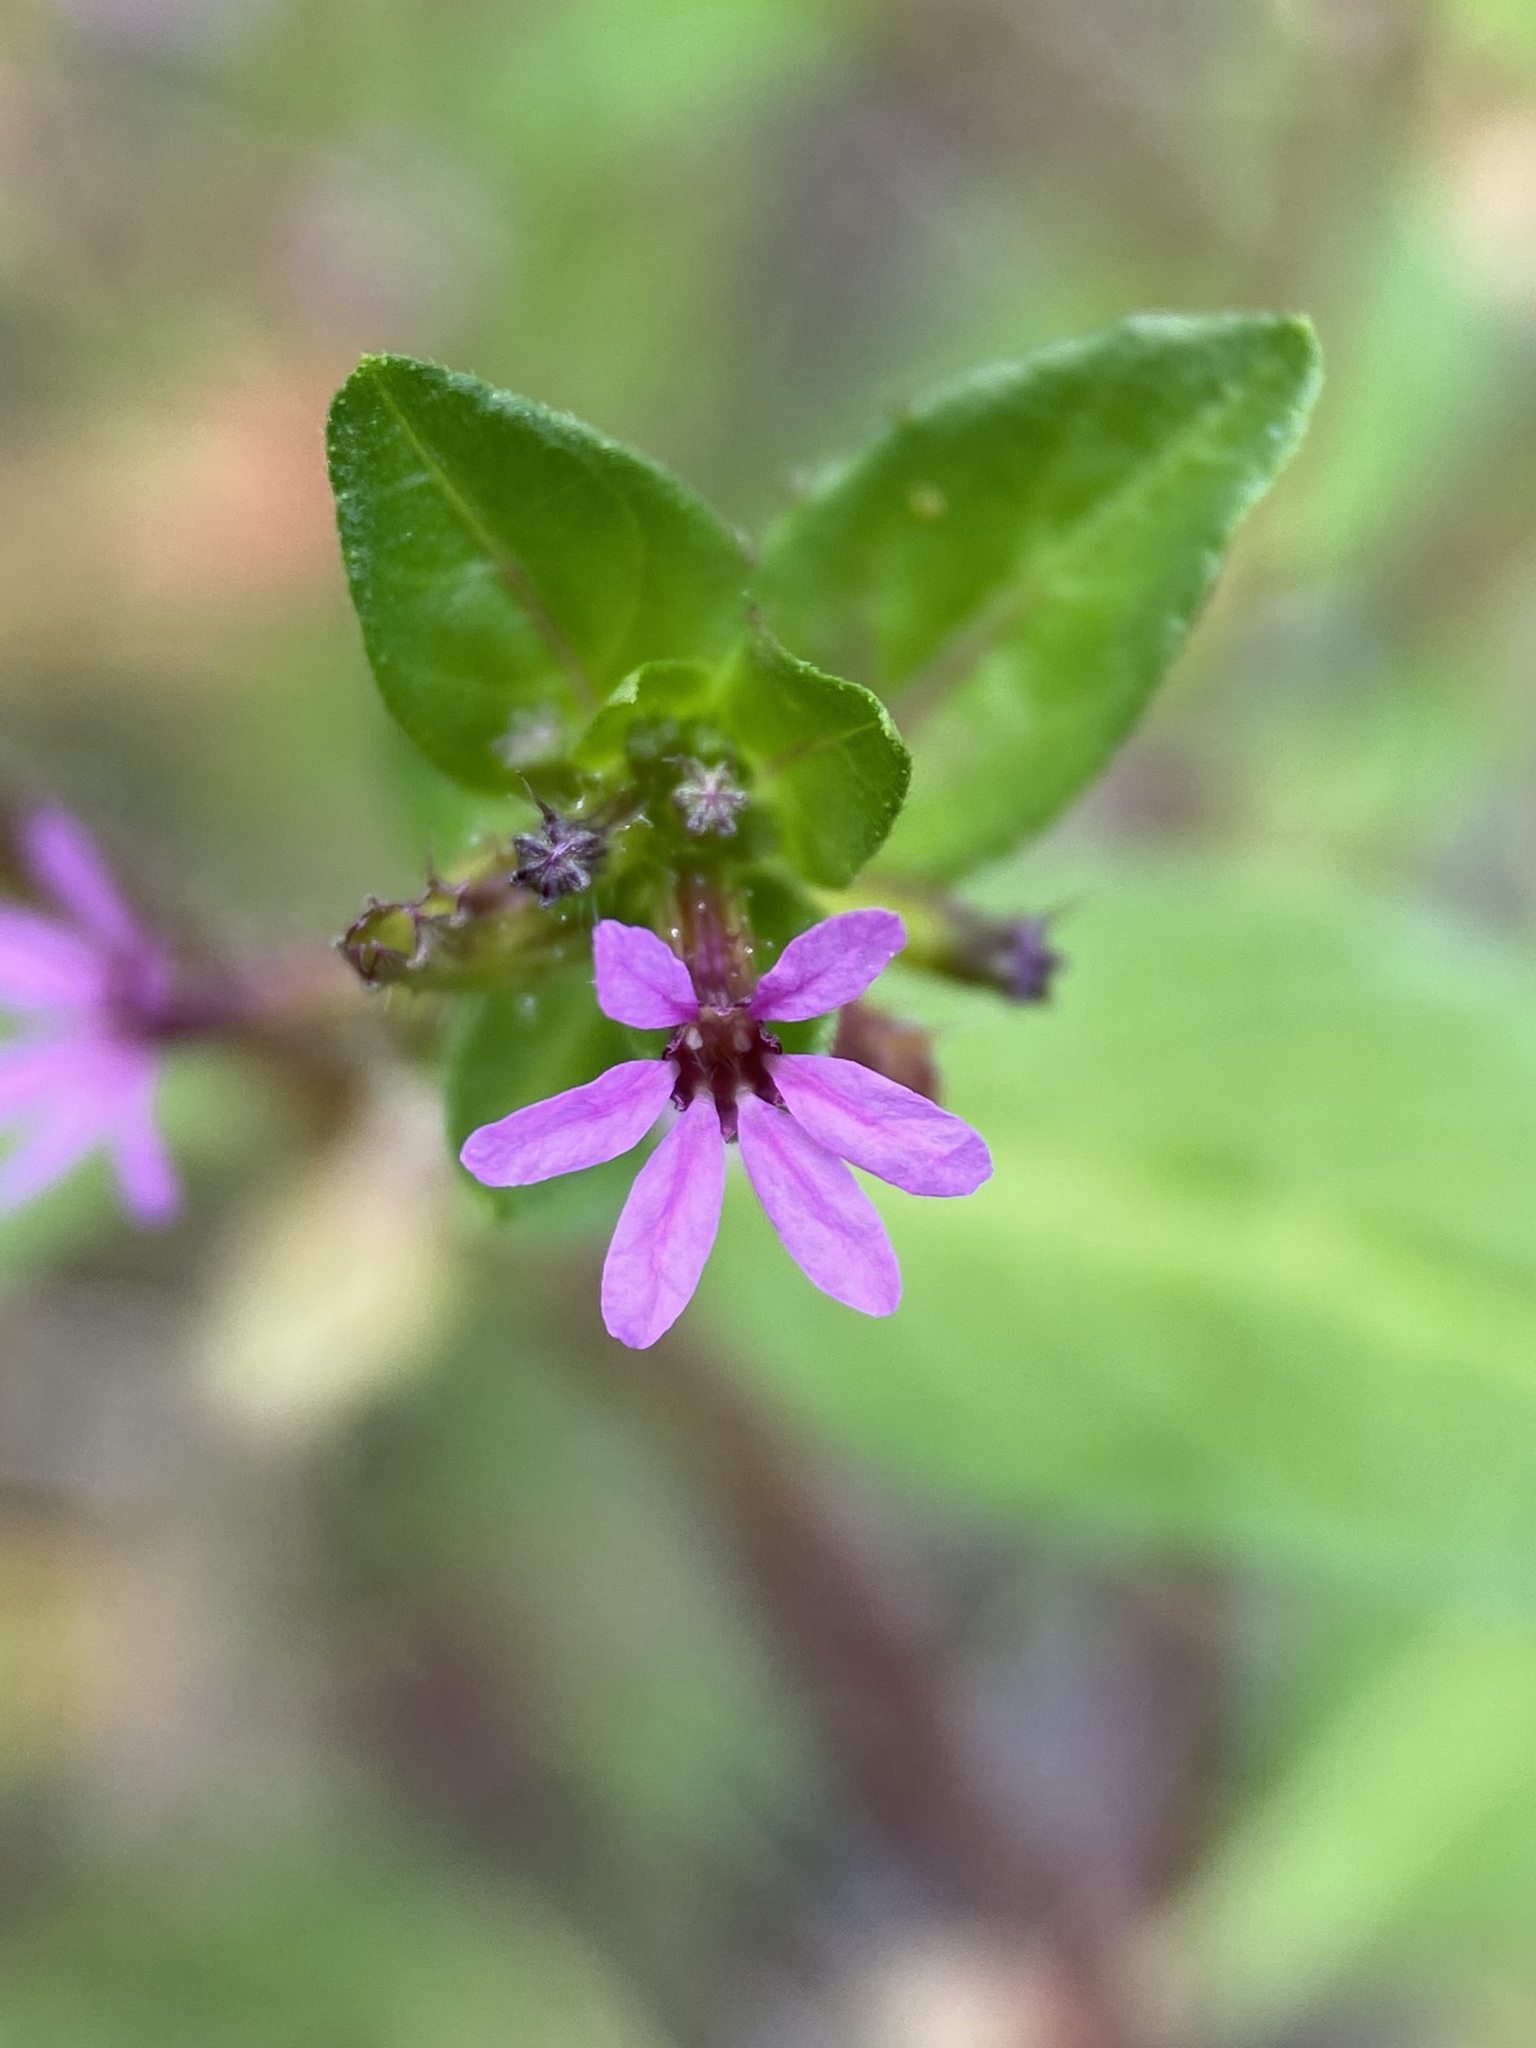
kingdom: Plantae
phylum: Tracheophyta
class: Magnoliopsida
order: Myrtales
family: Lythraceae
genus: Cuphea
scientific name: Cuphea carthagenensis
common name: Colombian waxweed
